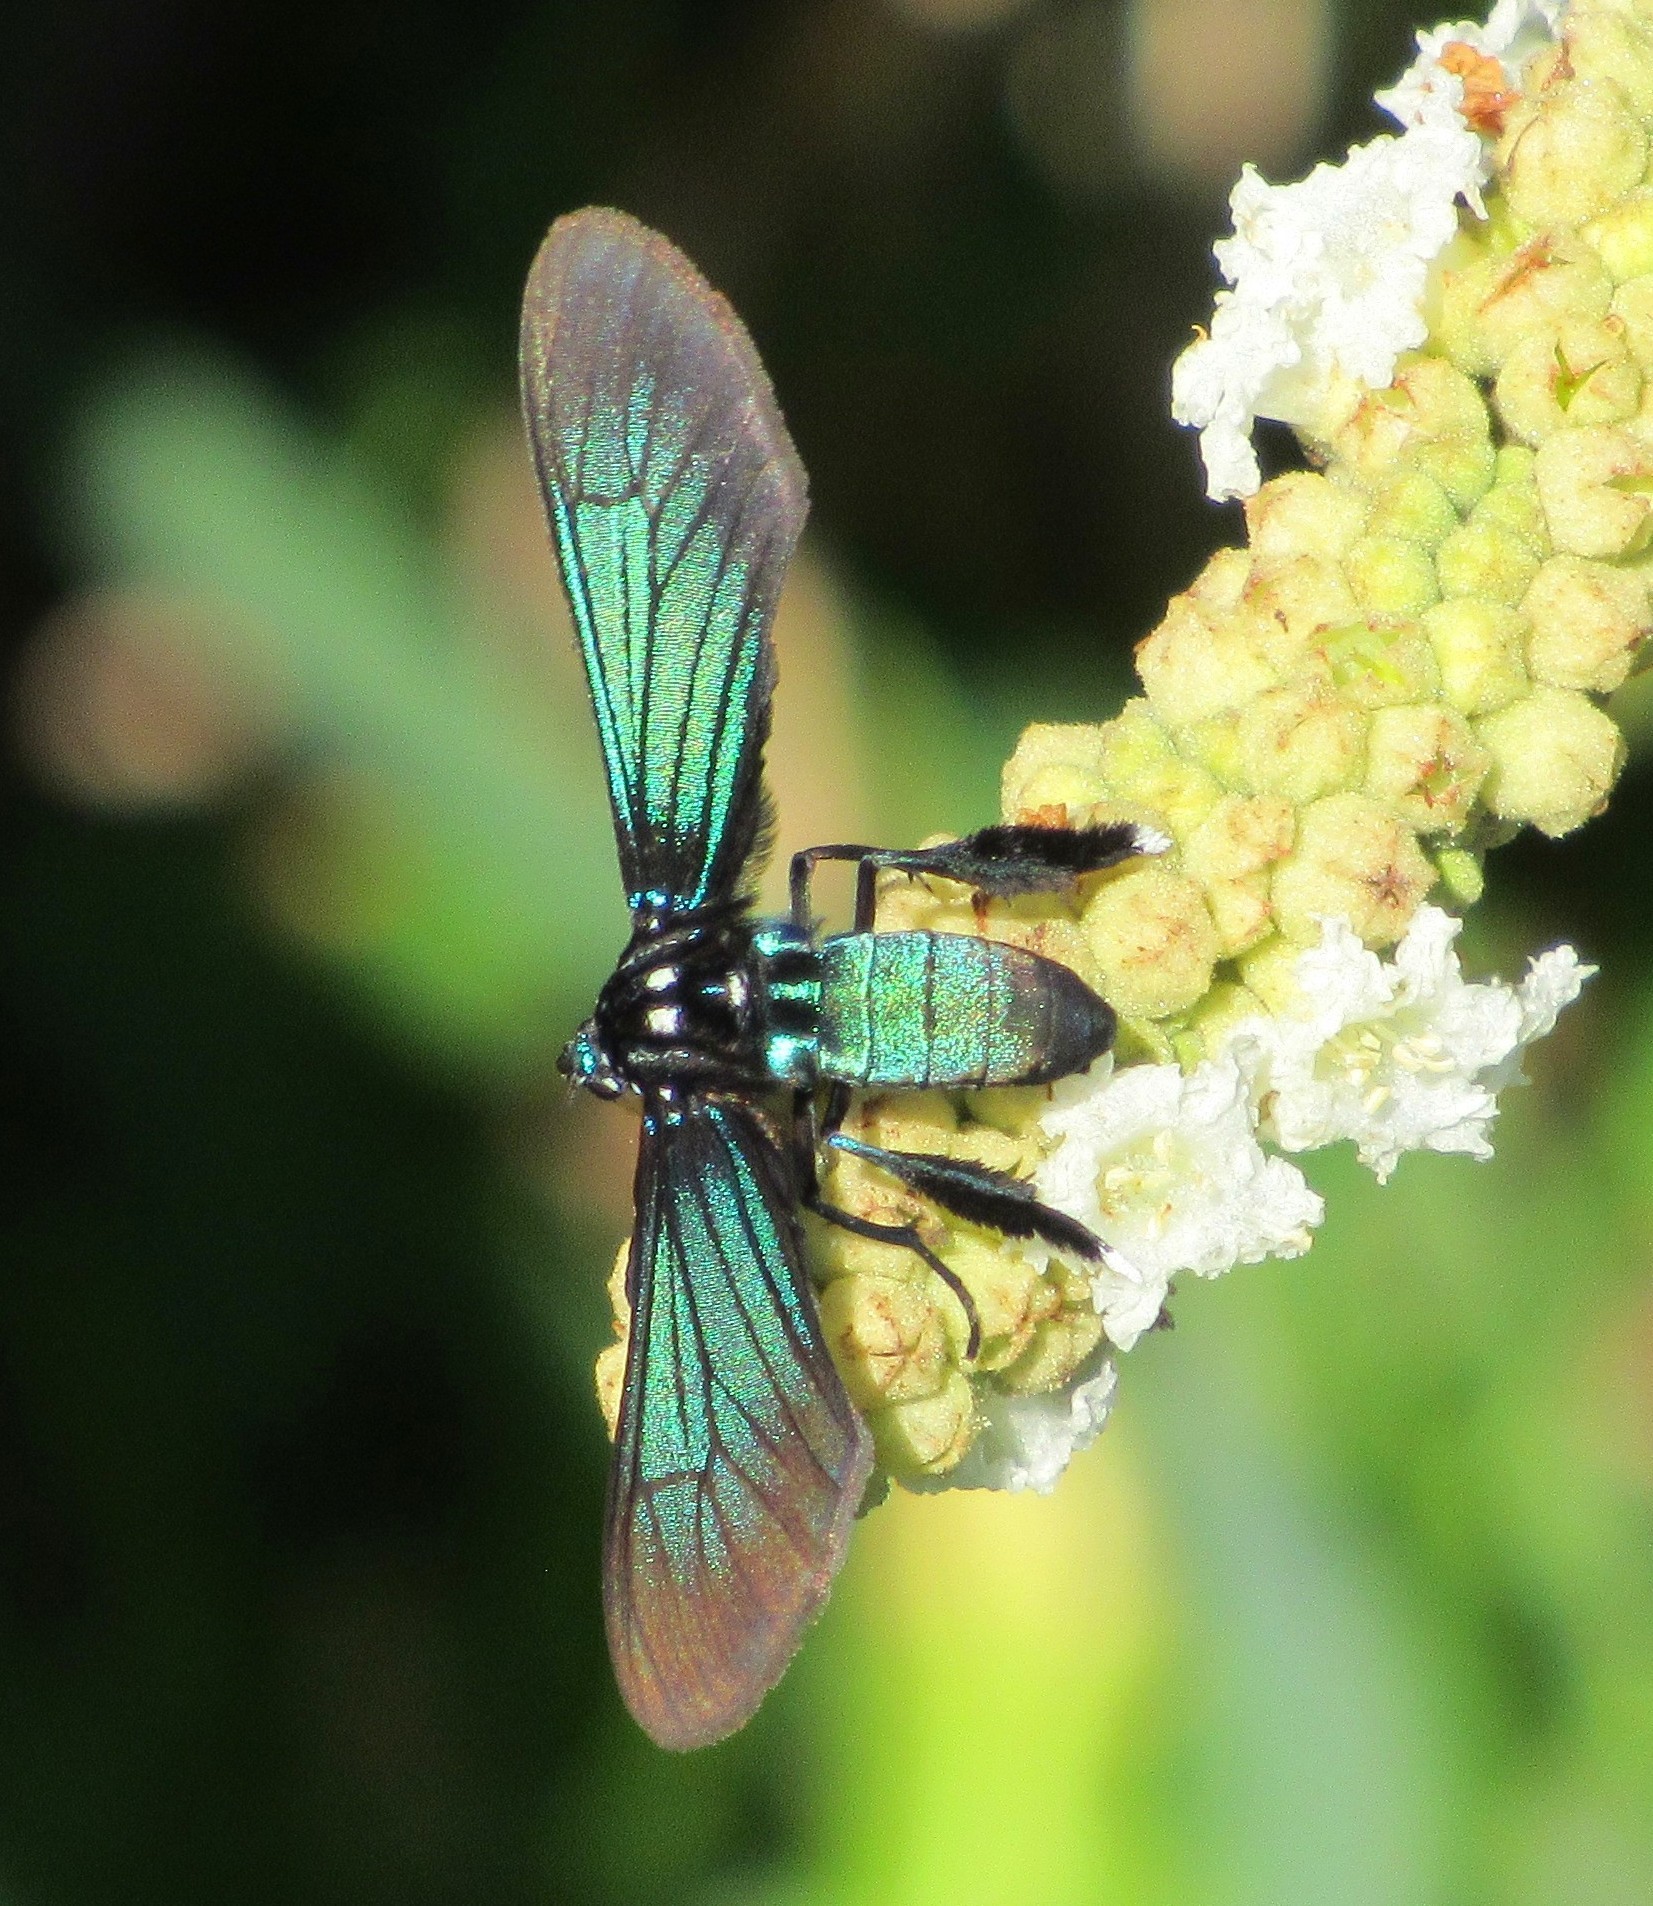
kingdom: Animalia
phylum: Arthropoda
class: Insecta
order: Lepidoptera
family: Erebidae
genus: Poliopastea
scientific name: Poliopastea indistincta
